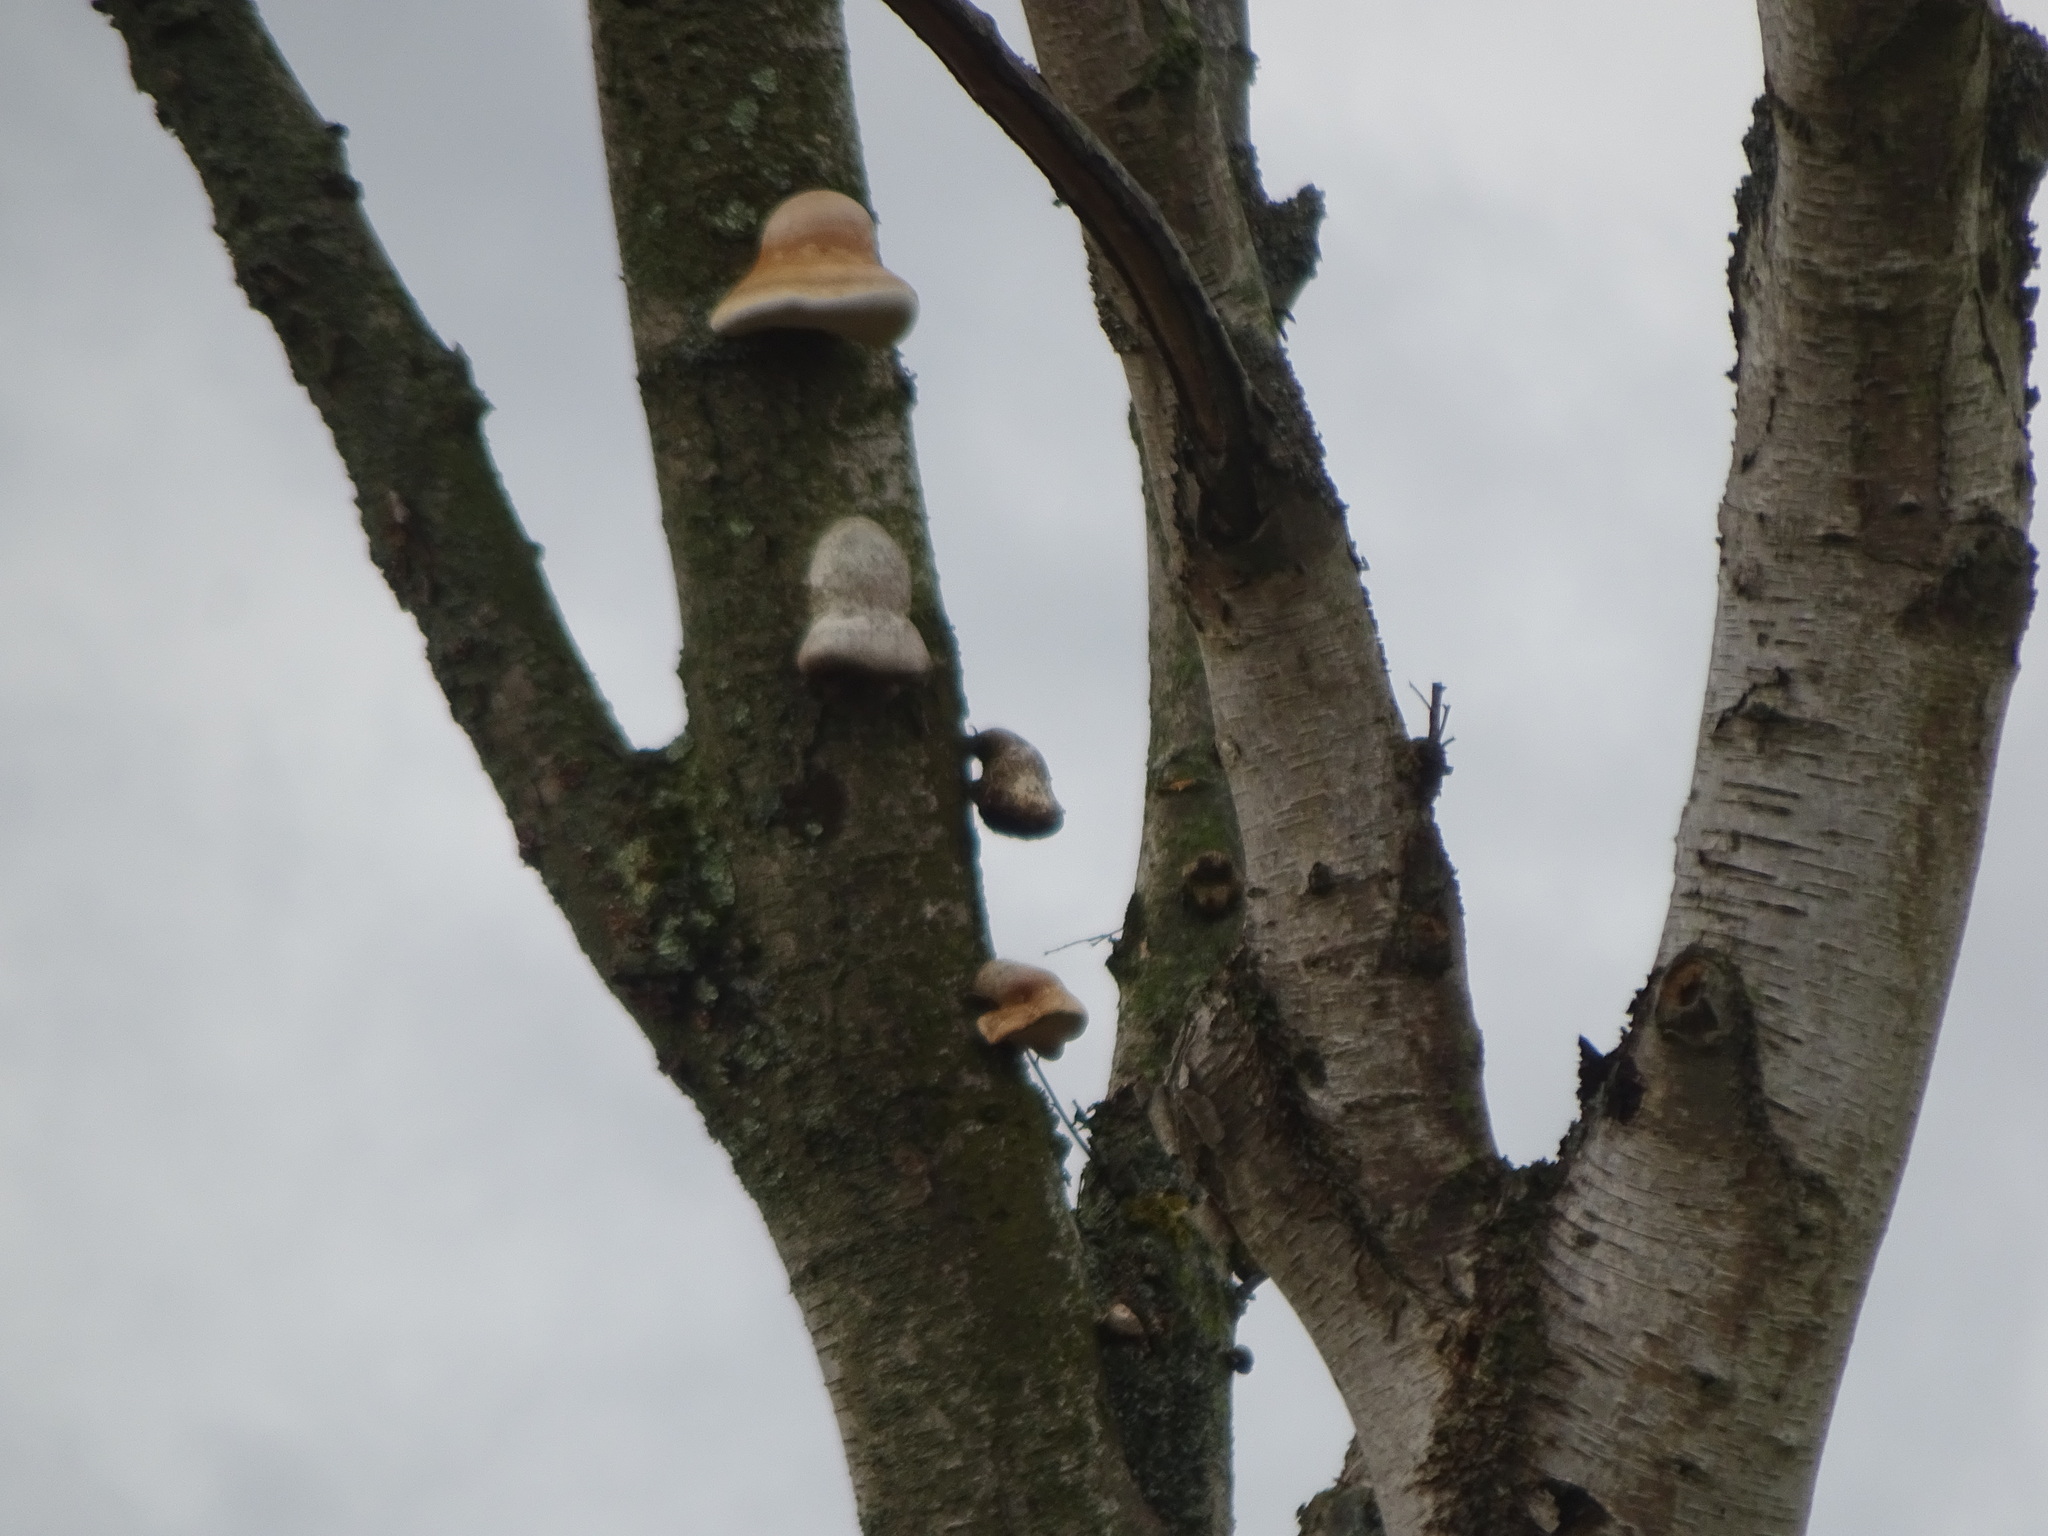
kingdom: Fungi
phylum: Basidiomycota
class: Agaricomycetes
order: Polyporales
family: Fomitopsidaceae
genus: Fomitopsis
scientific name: Fomitopsis betulina
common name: Birch polypore
